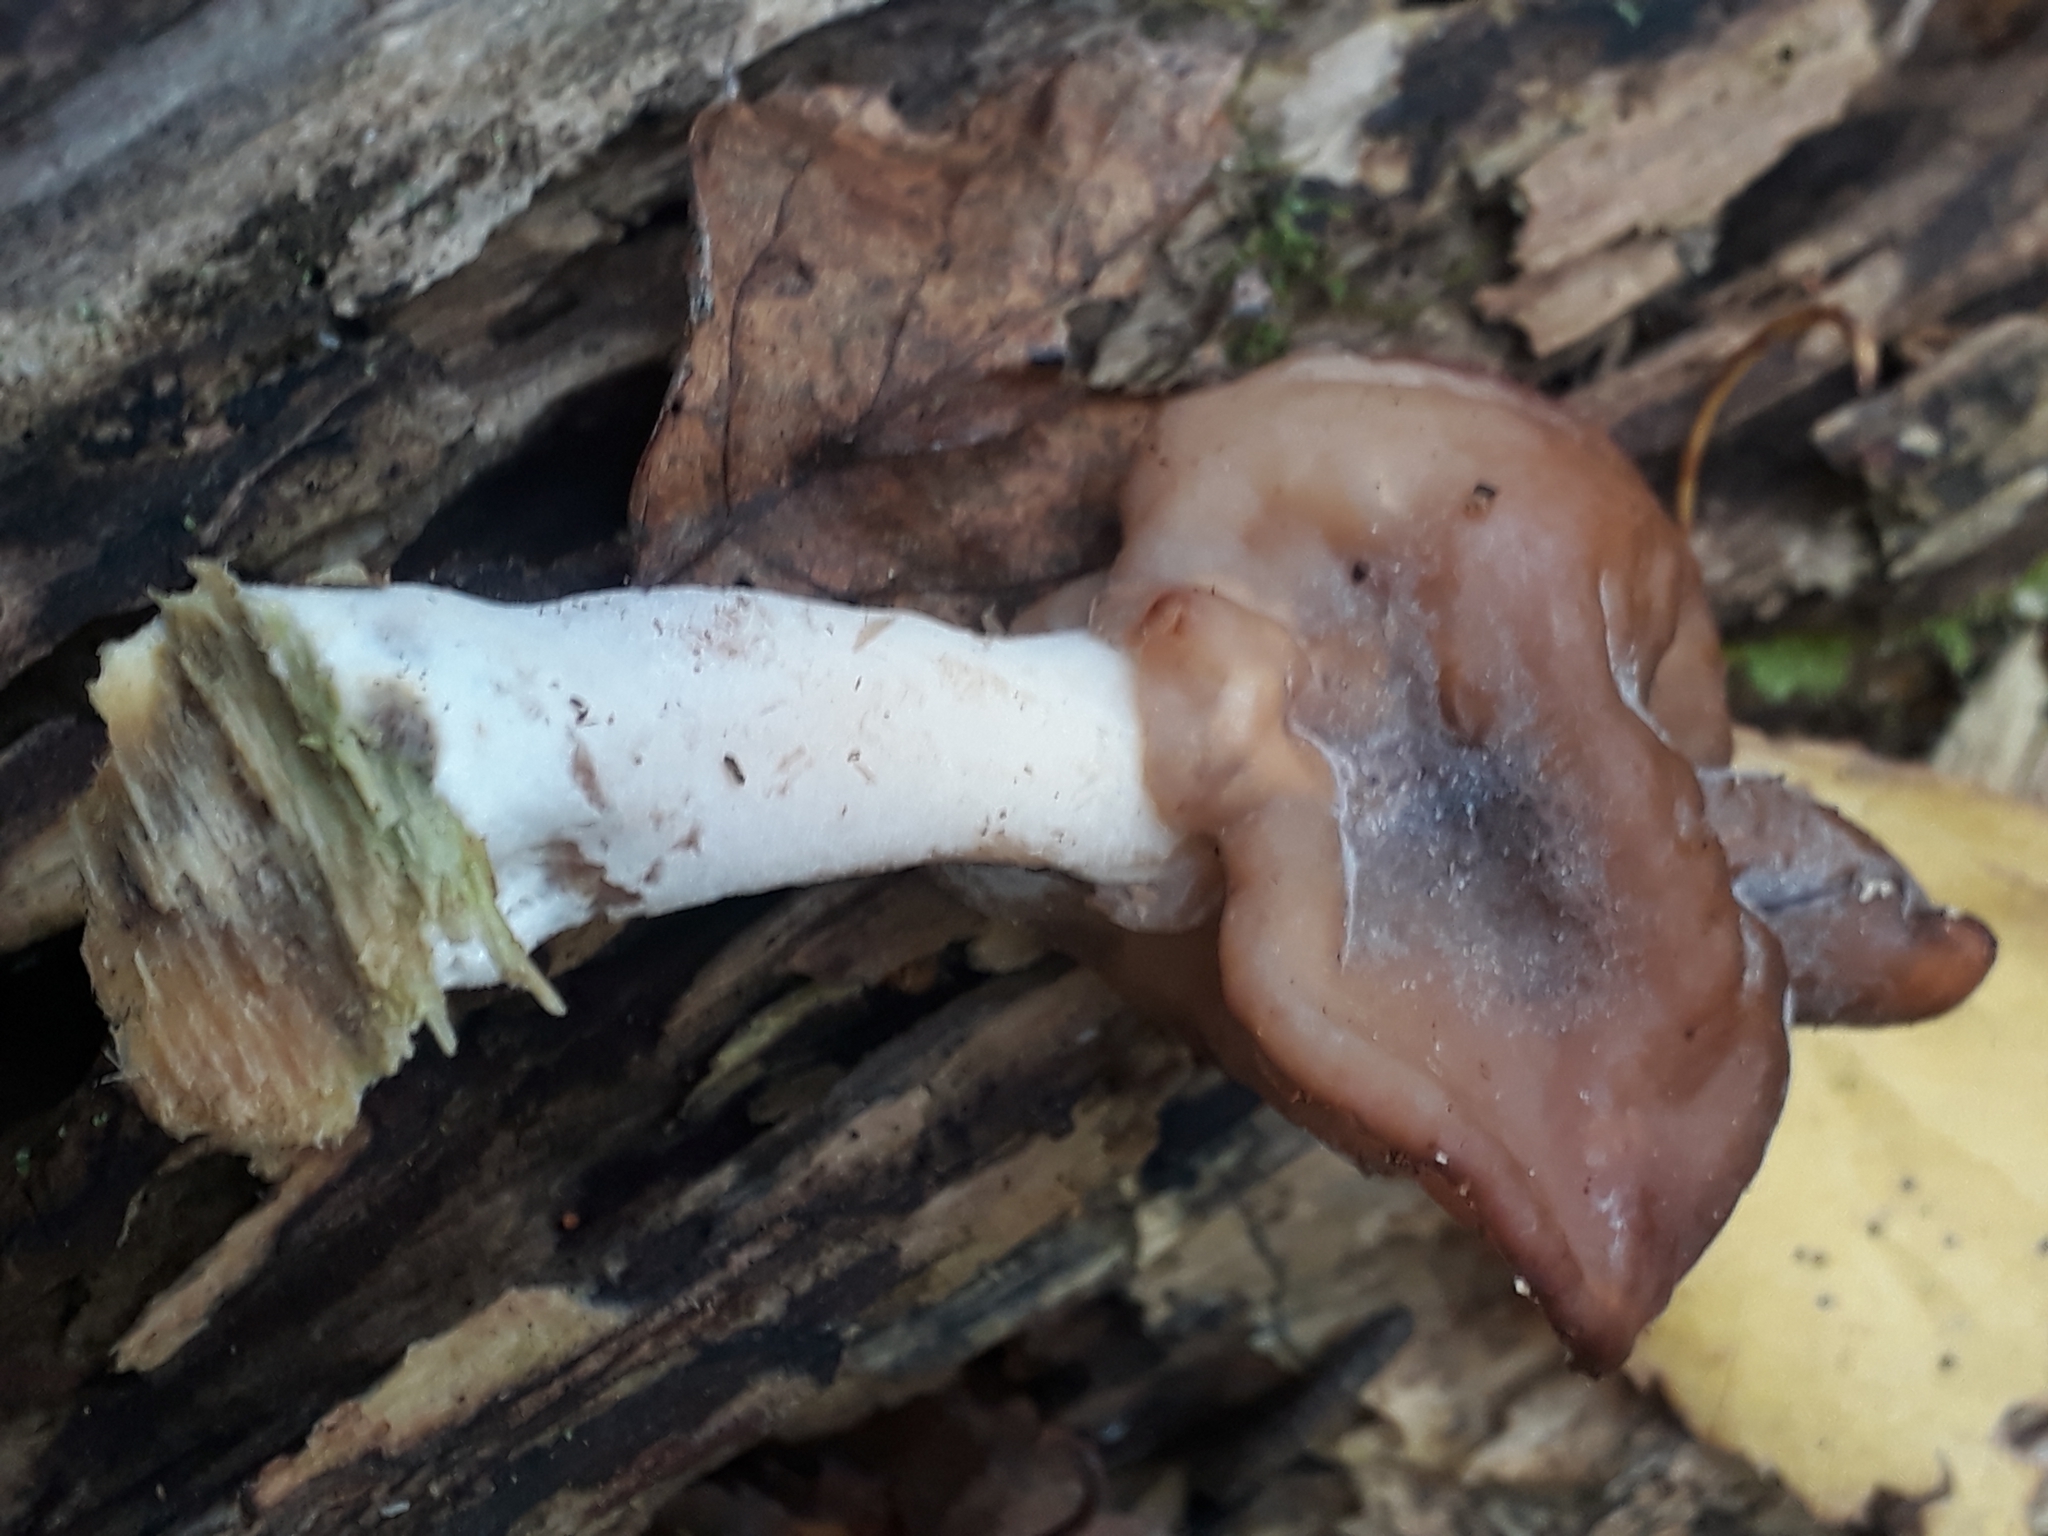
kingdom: Fungi
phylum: Ascomycota
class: Pezizomycetes
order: Pezizales
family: Discinaceae
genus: Gyromitra
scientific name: Gyromitra infula
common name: Pouched false morel
